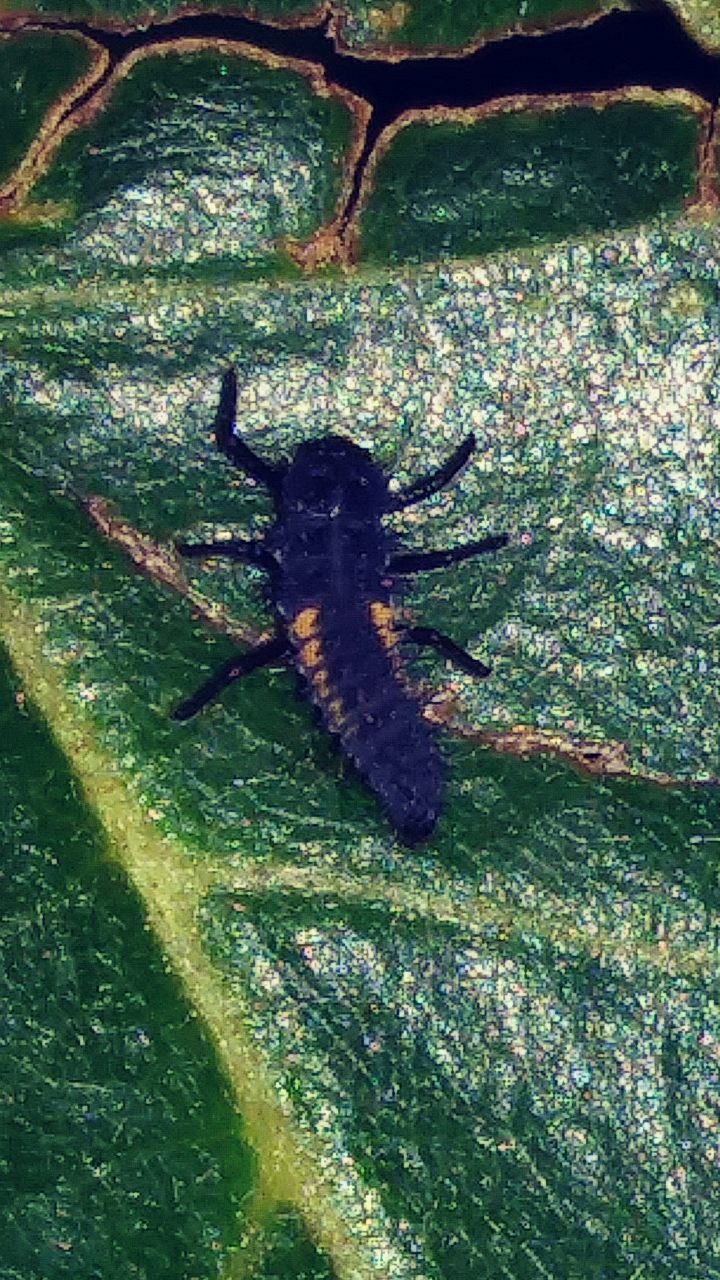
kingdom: Animalia
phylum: Arthropoda
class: Insecta
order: Coleoptera
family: Coccinellidae
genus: Harmonia
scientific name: Harmonia axyridis
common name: Harlequin ladybird
